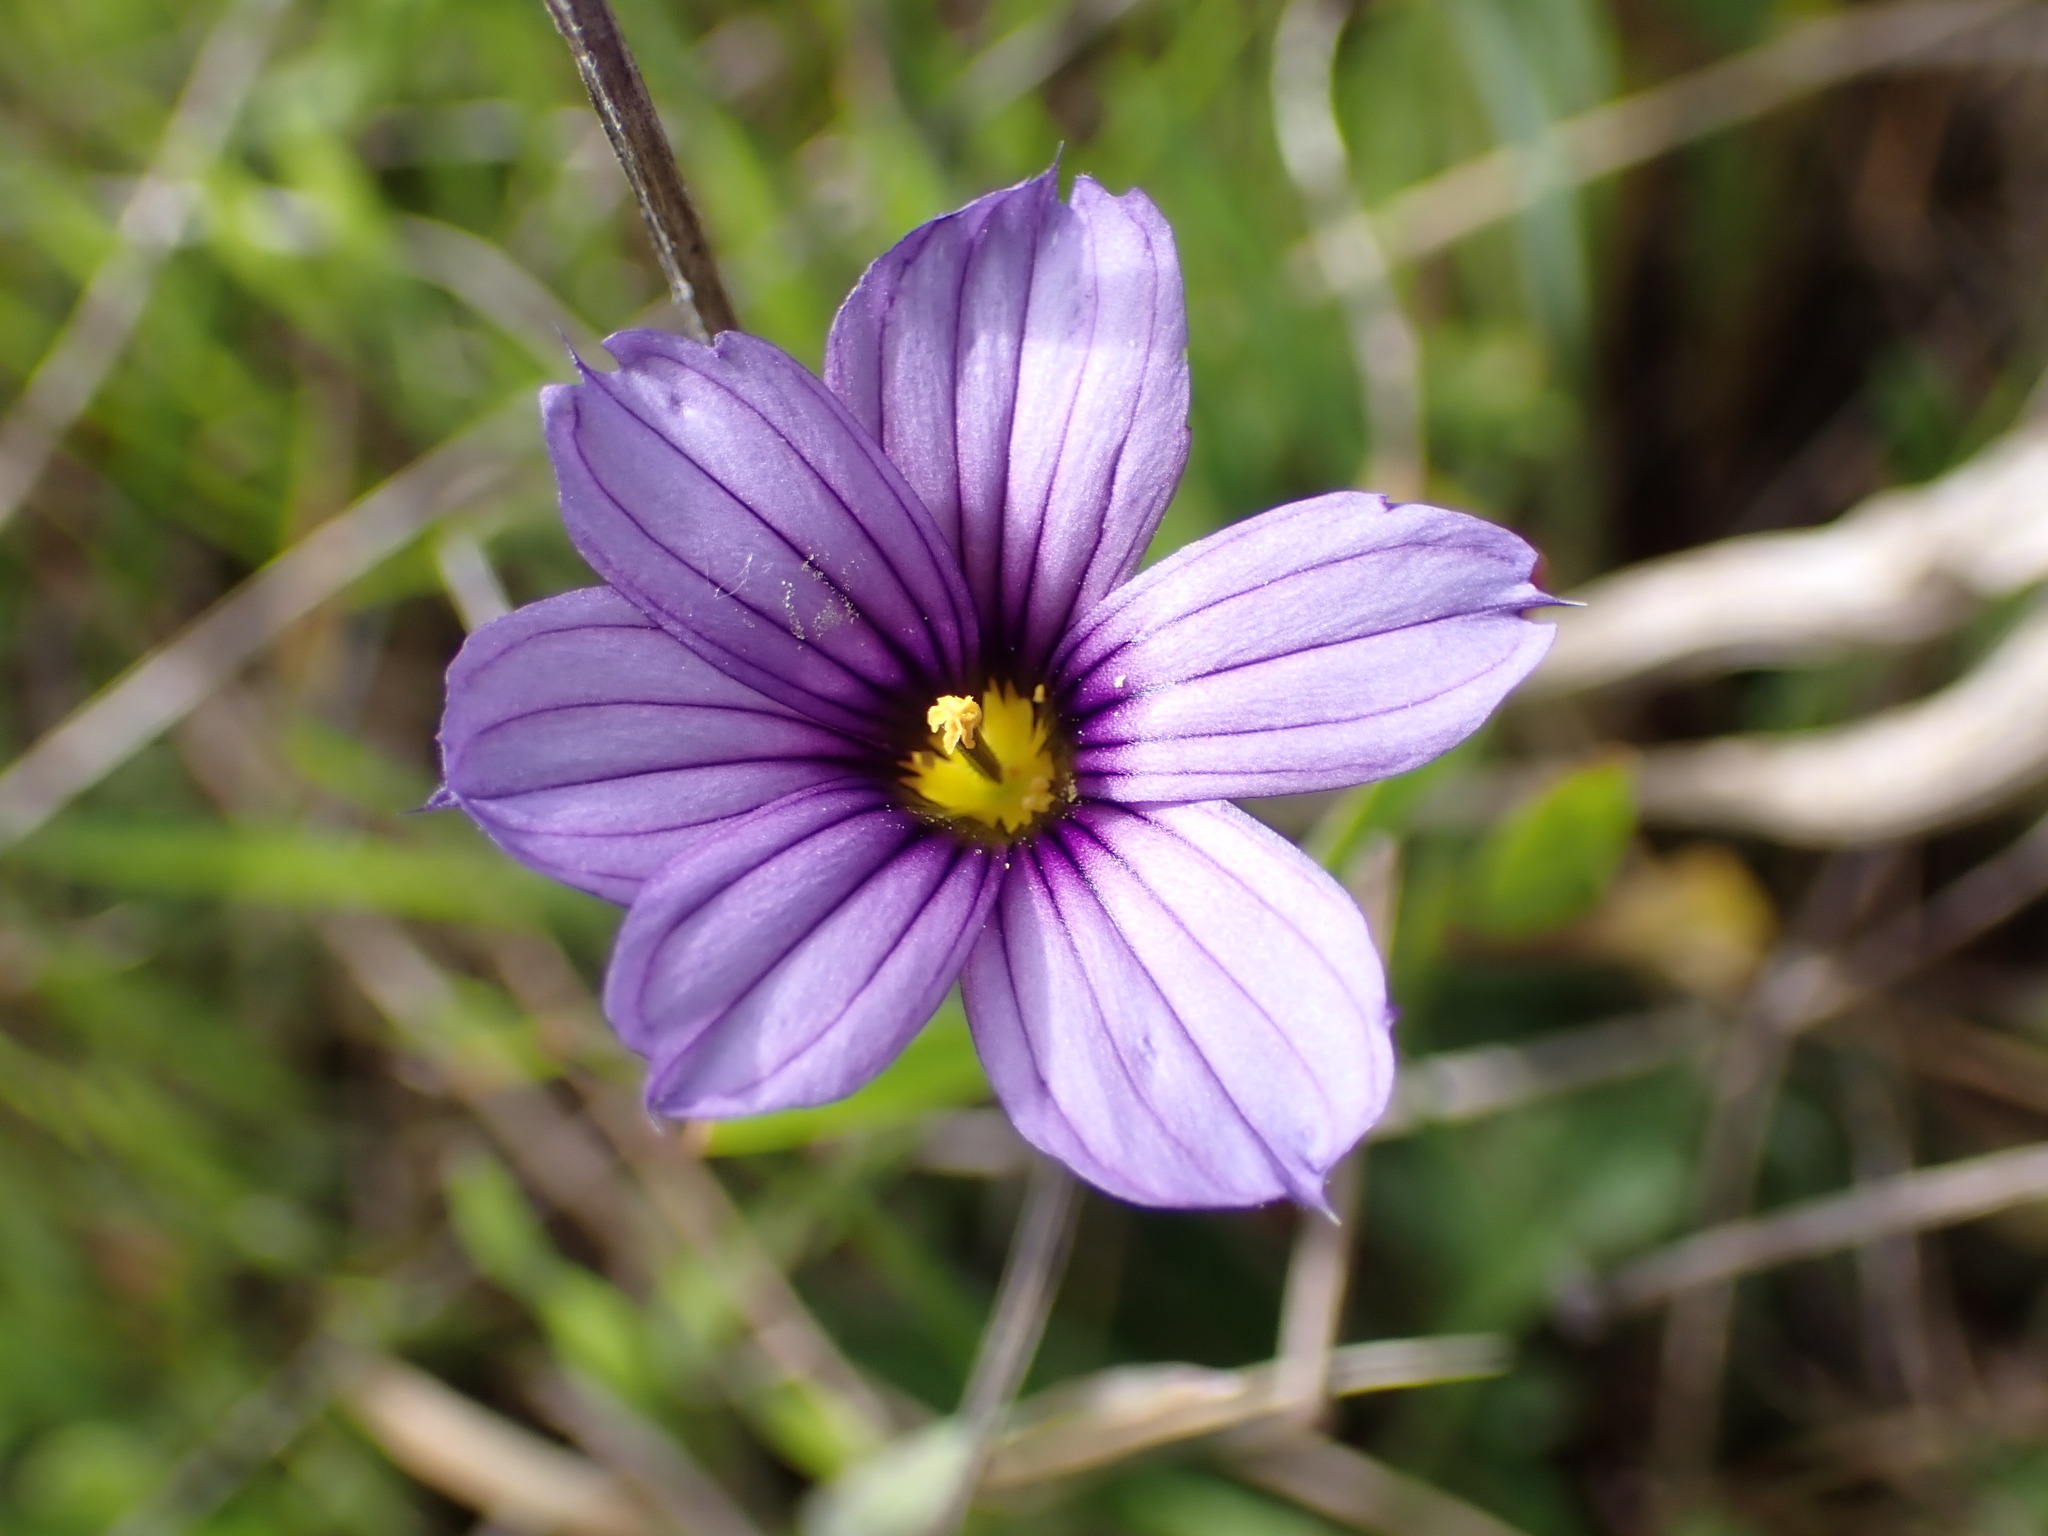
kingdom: Plantae
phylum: Tracheophyta
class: Liliopsida
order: Asparagales
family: Iridaceae
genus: Sisyrinchium
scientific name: Sisyrinchium bellum
